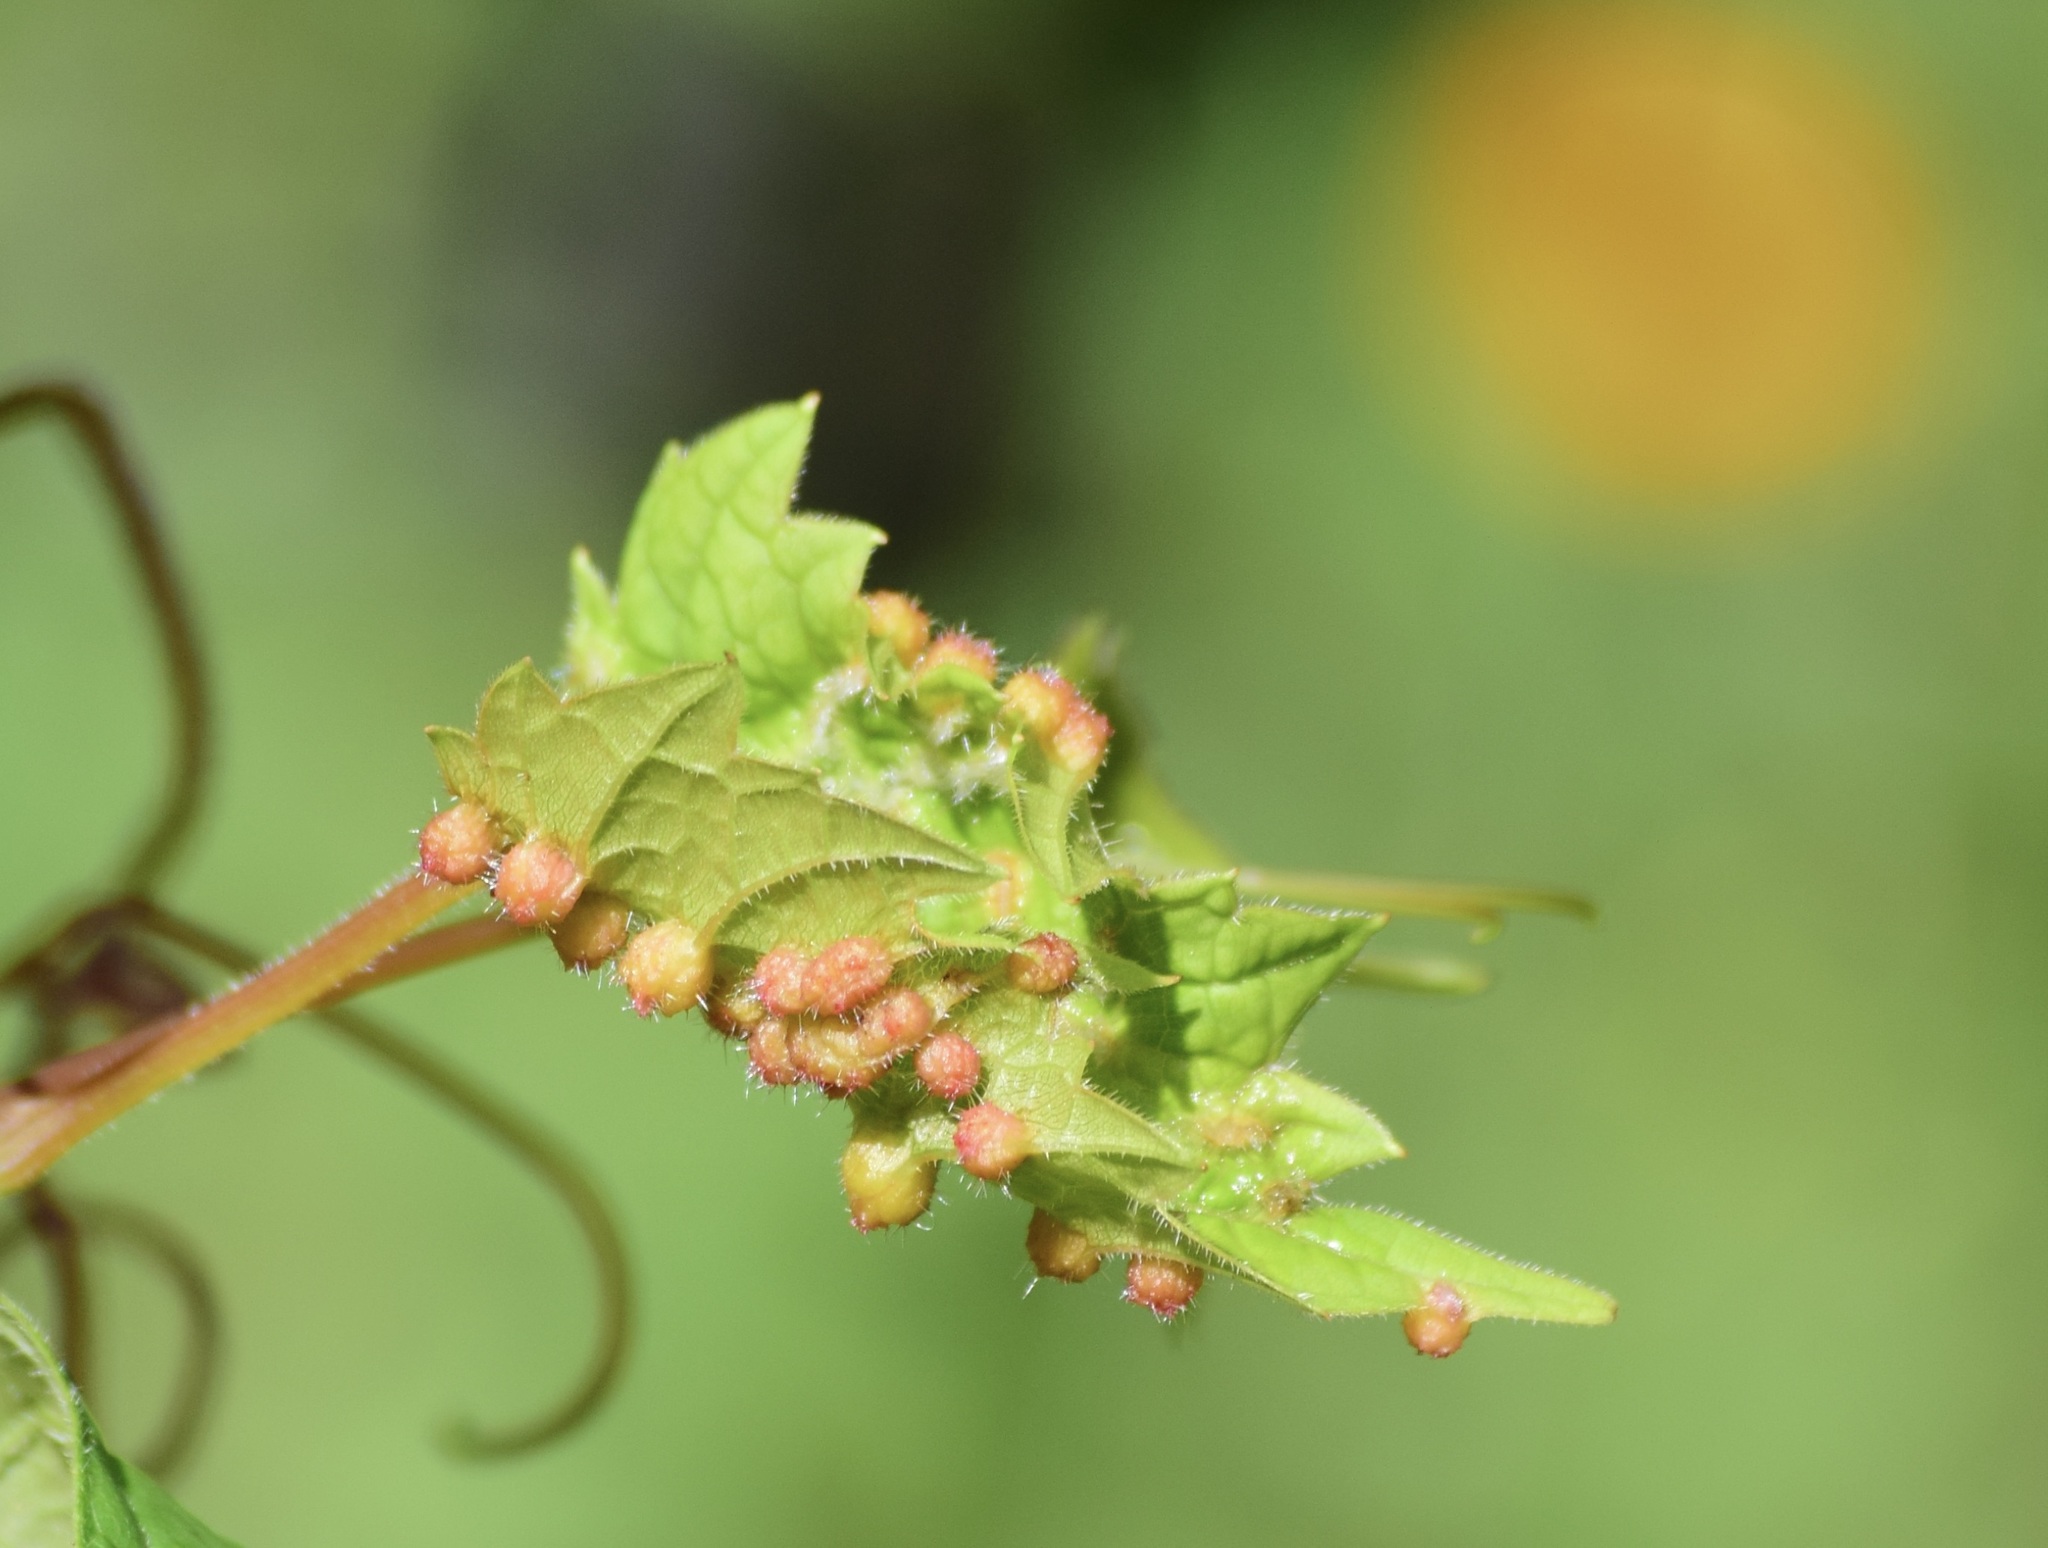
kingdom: Animalia
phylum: Arthropoda
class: Insecta
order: Hemiptera
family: Phylloxeridae
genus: Daktulosphaira
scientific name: Daktulosphaira vitifoliae
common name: Grape phylloxera
